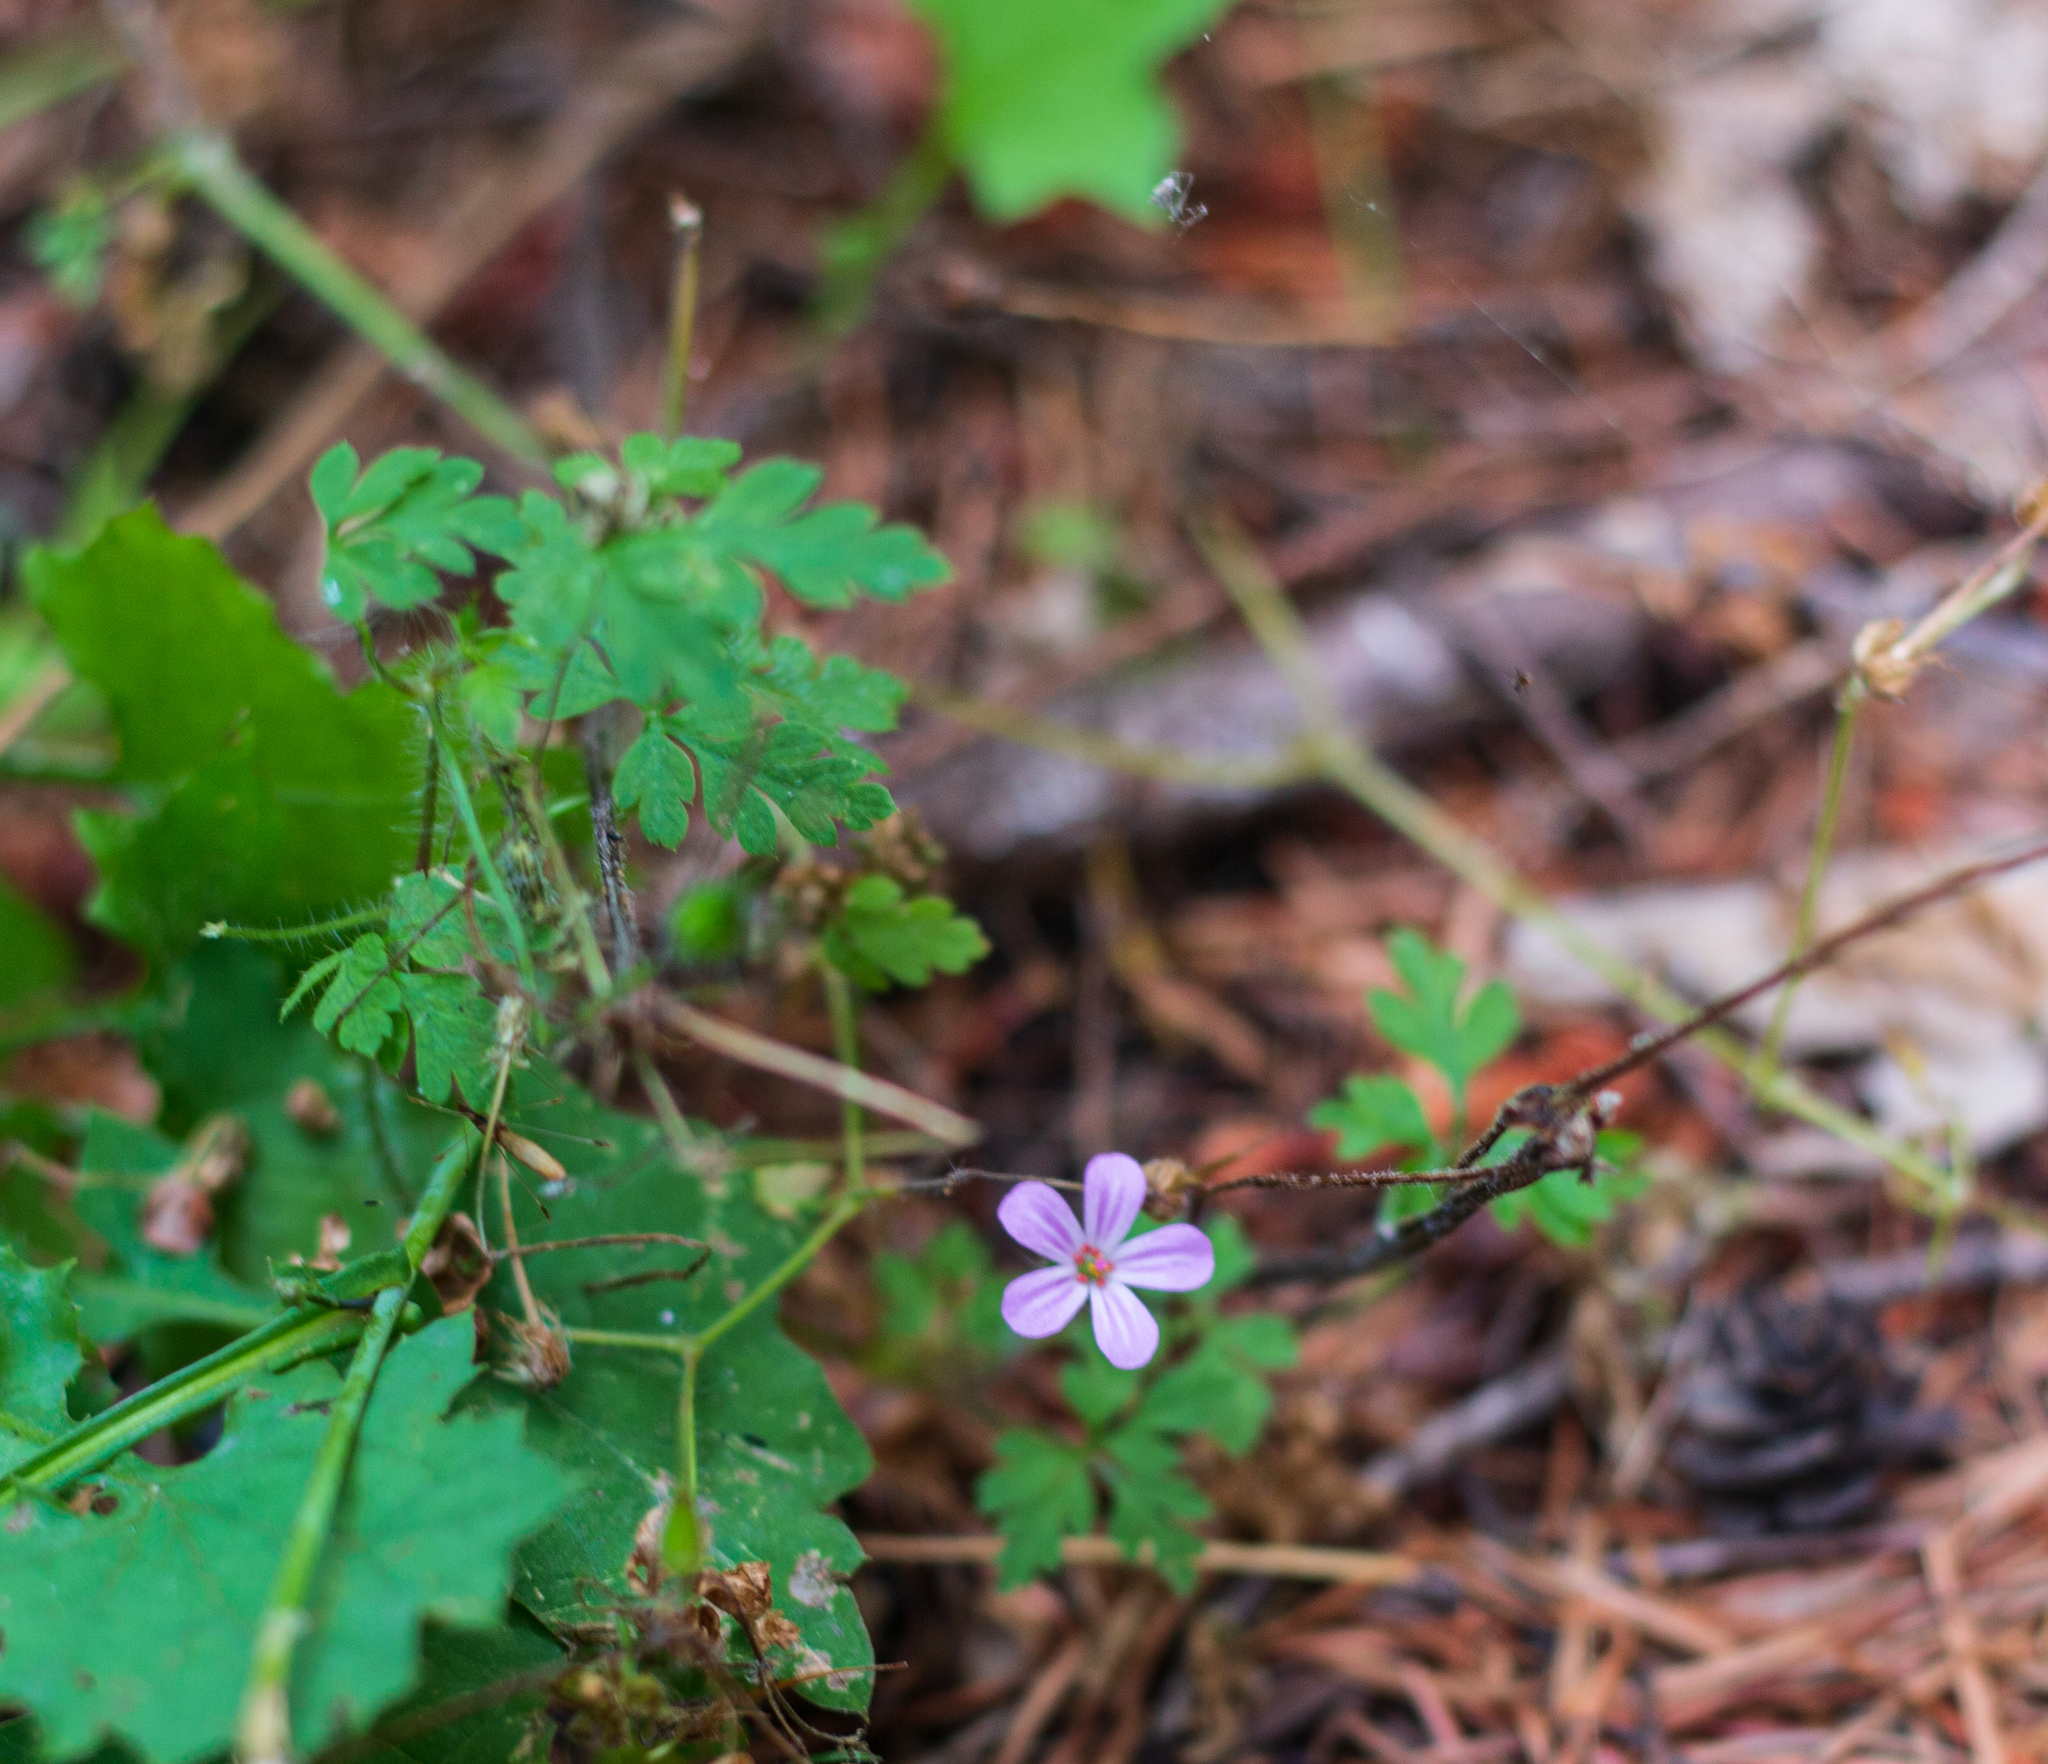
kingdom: Plantae
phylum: Tracheophyta
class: Magnoliopsida
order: Geraniales
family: Geraniaceae
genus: Geranium
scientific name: Geranium robertianum
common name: Herb-robert
